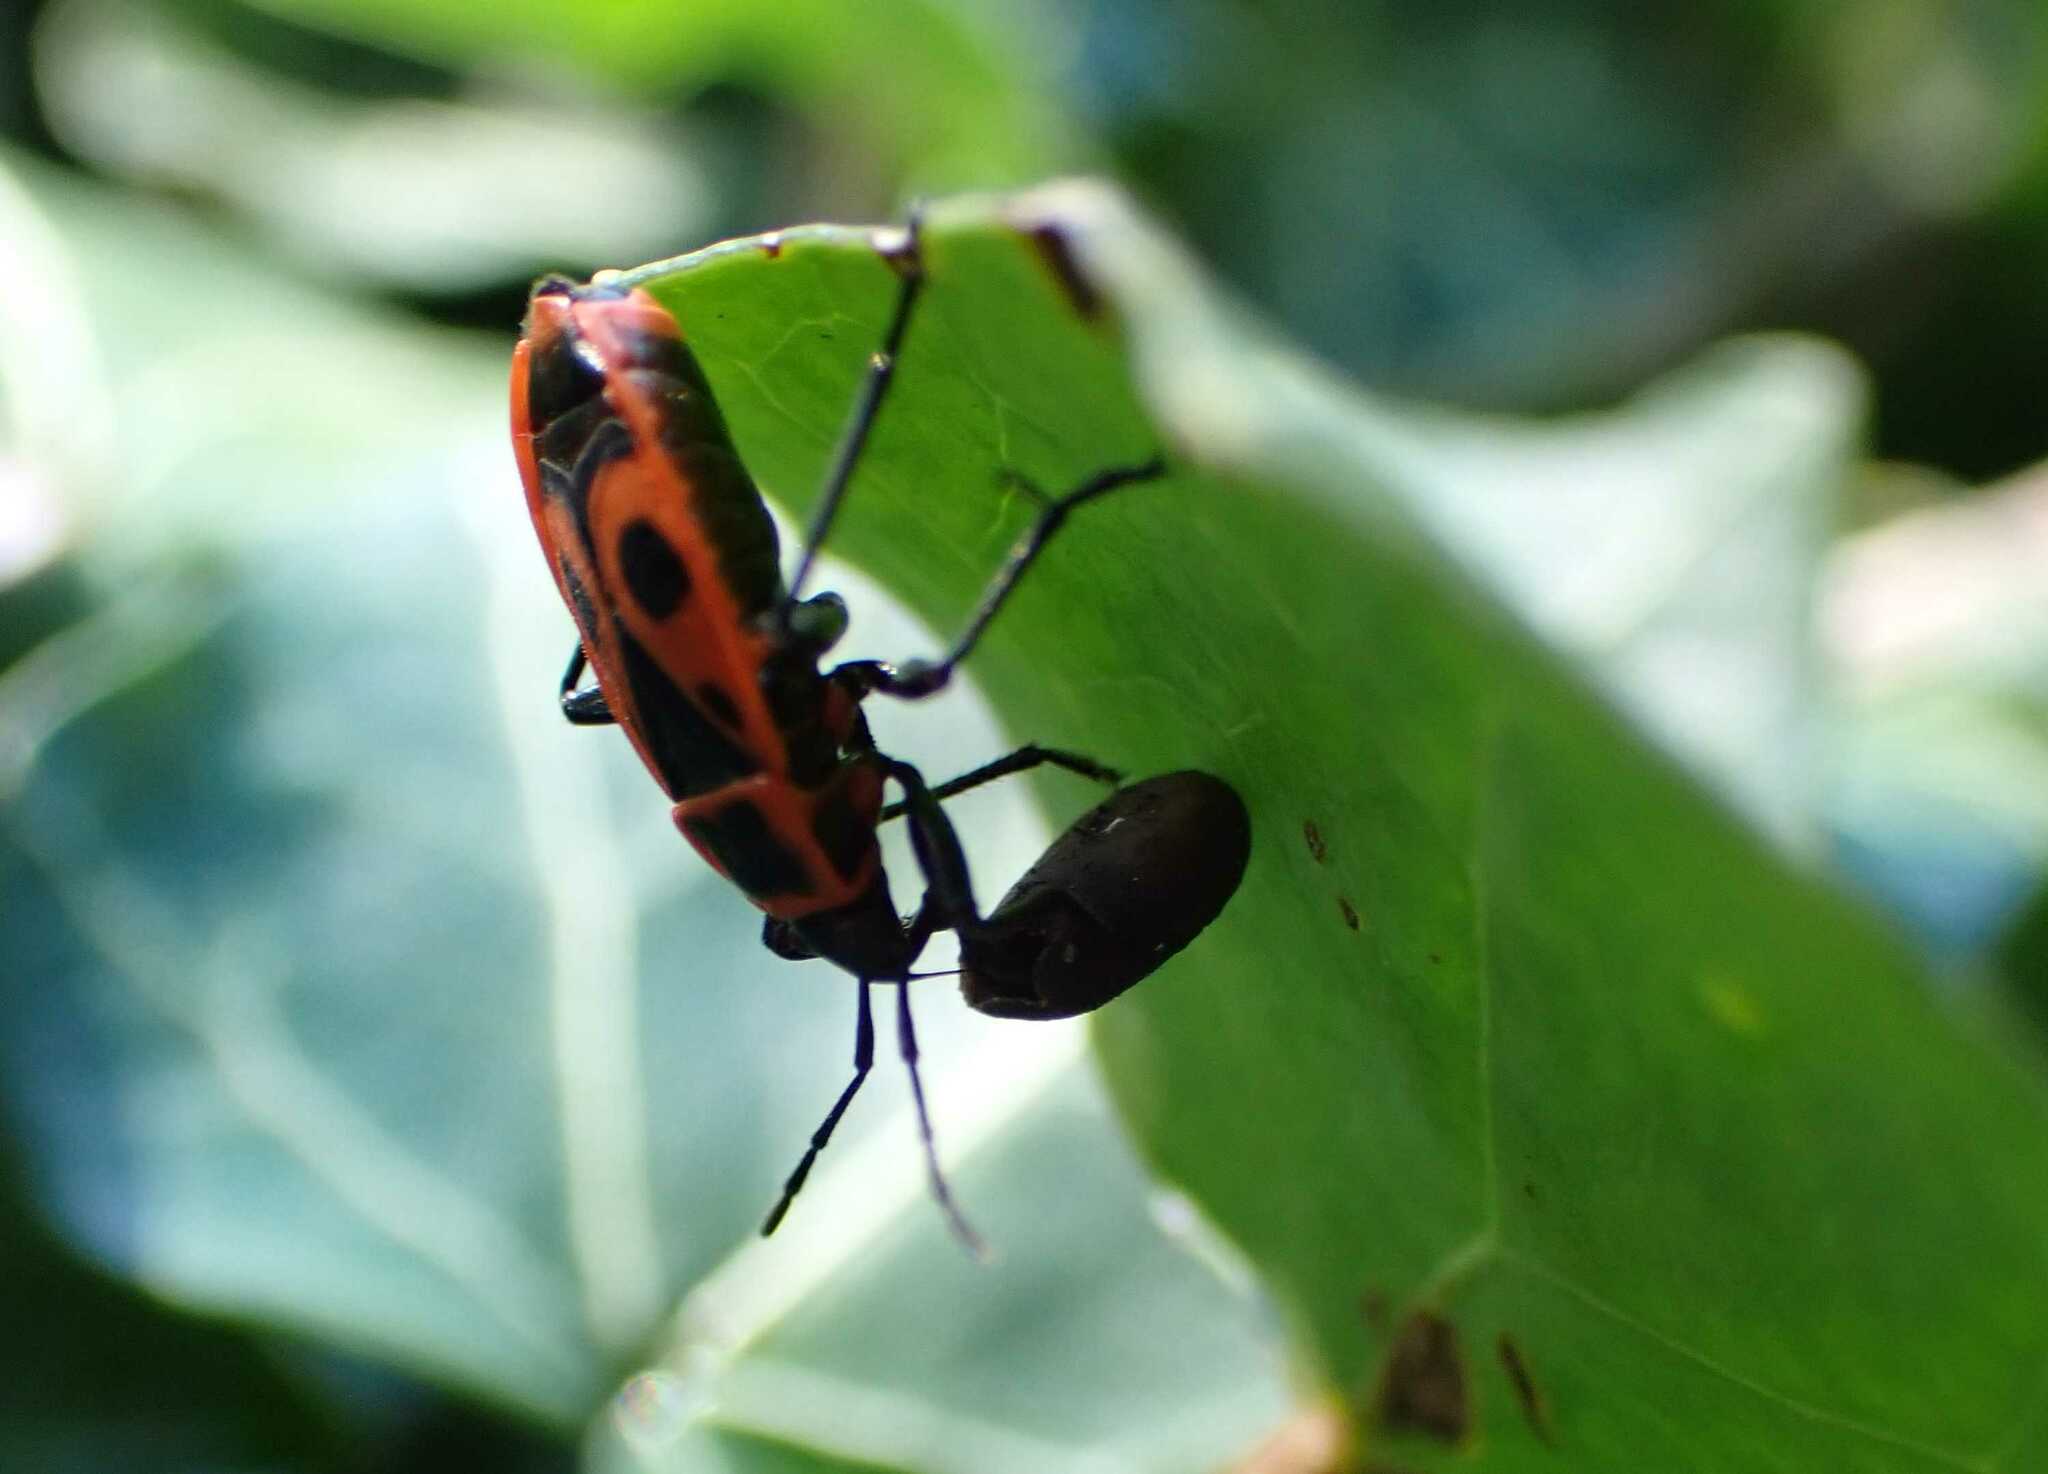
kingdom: Animalia
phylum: Arthropoda
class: Insecta
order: Hemiptera
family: Pyrrhocoridae
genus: Pyrrhocoris
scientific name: Pyrrhocoris apterus
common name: Firebug
